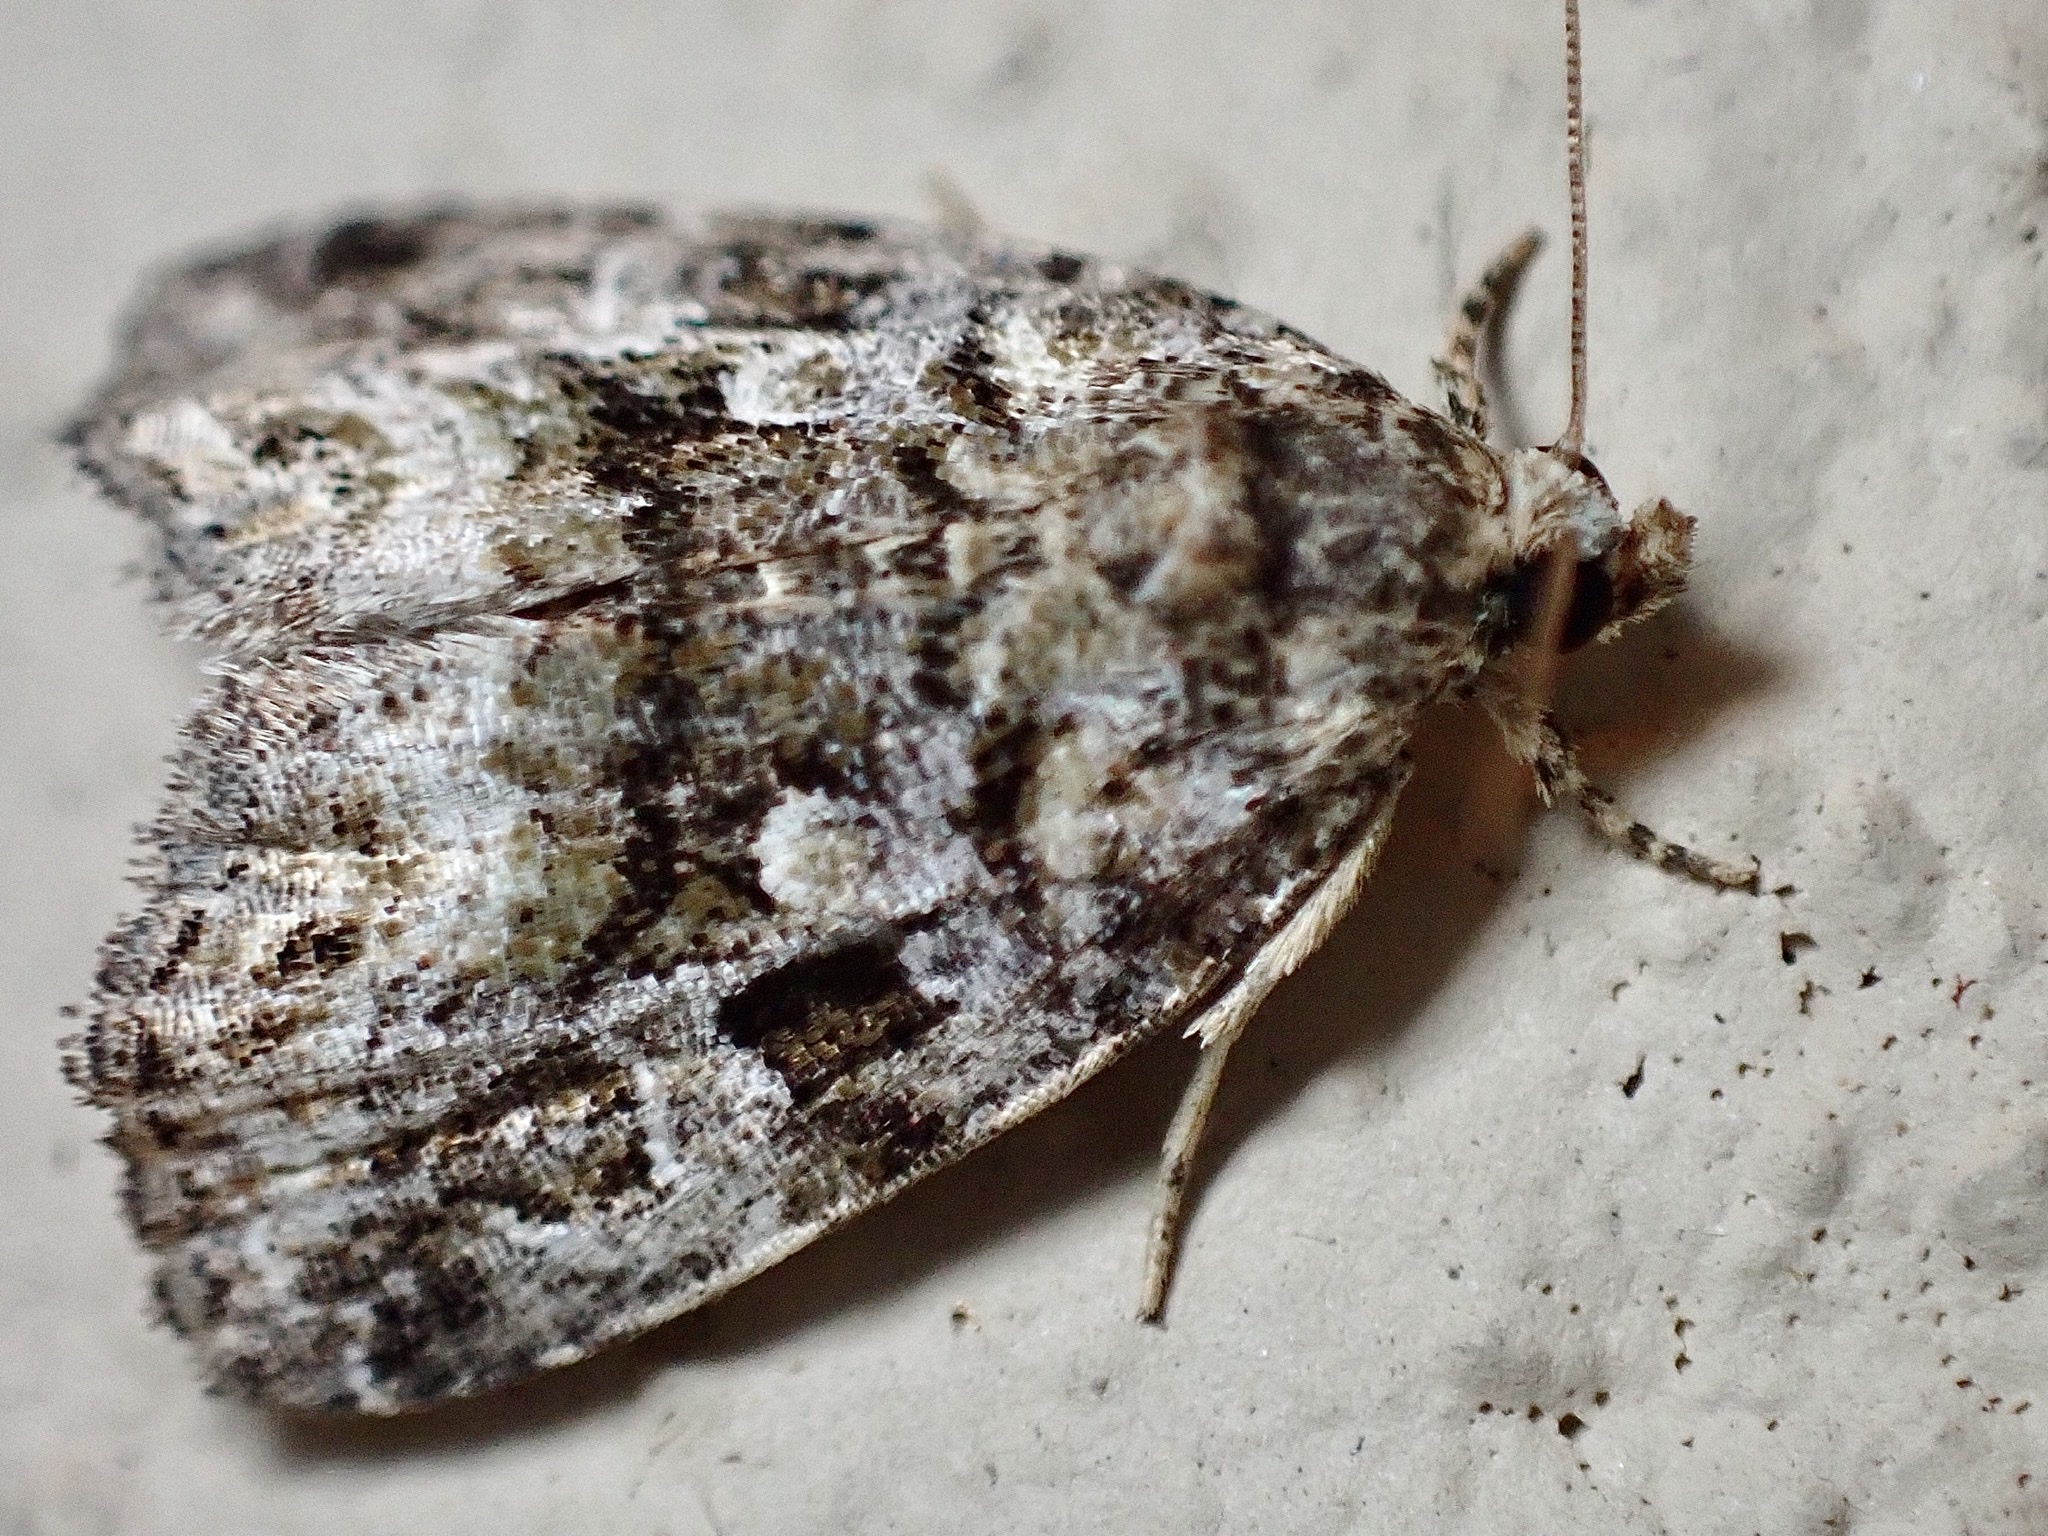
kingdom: Animalia
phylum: Arthropoda
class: Insecta
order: Lepidoptera
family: Noctuidae
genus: Protodeltote
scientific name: Protodeltote muscosula
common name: Large mossy glyph
